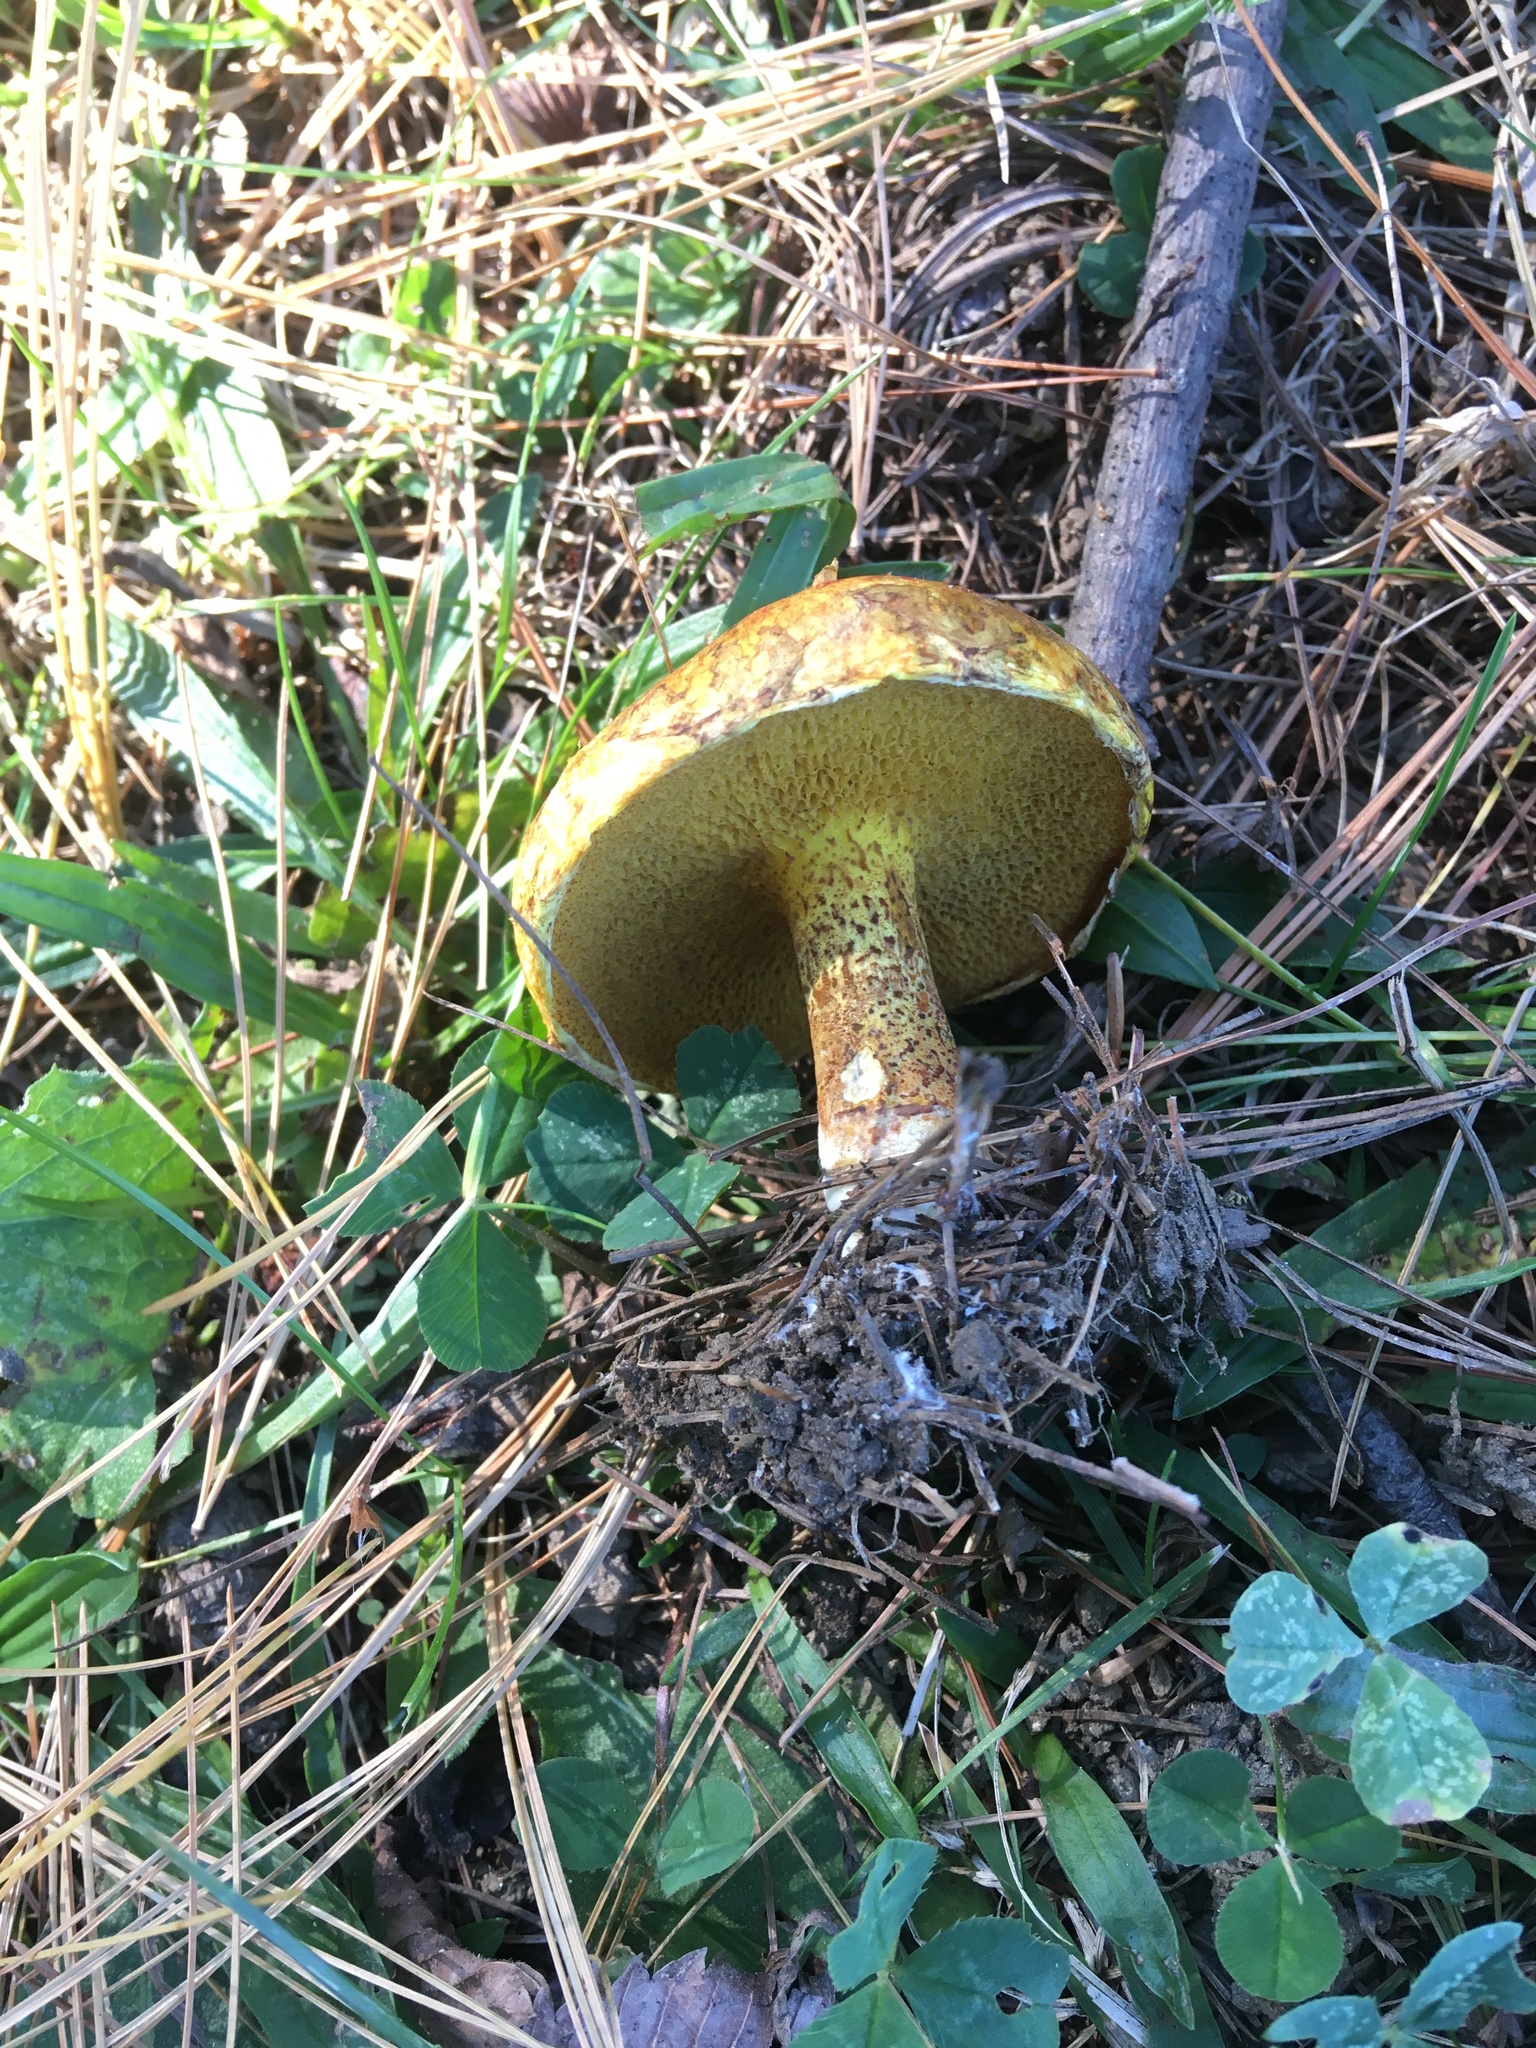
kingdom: Fungi
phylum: Basidiomycota
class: Agaricomycetes
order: Boletales
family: Suillaceae
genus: Suillus
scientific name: Suillus americanus
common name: Chicken fat mushroom
